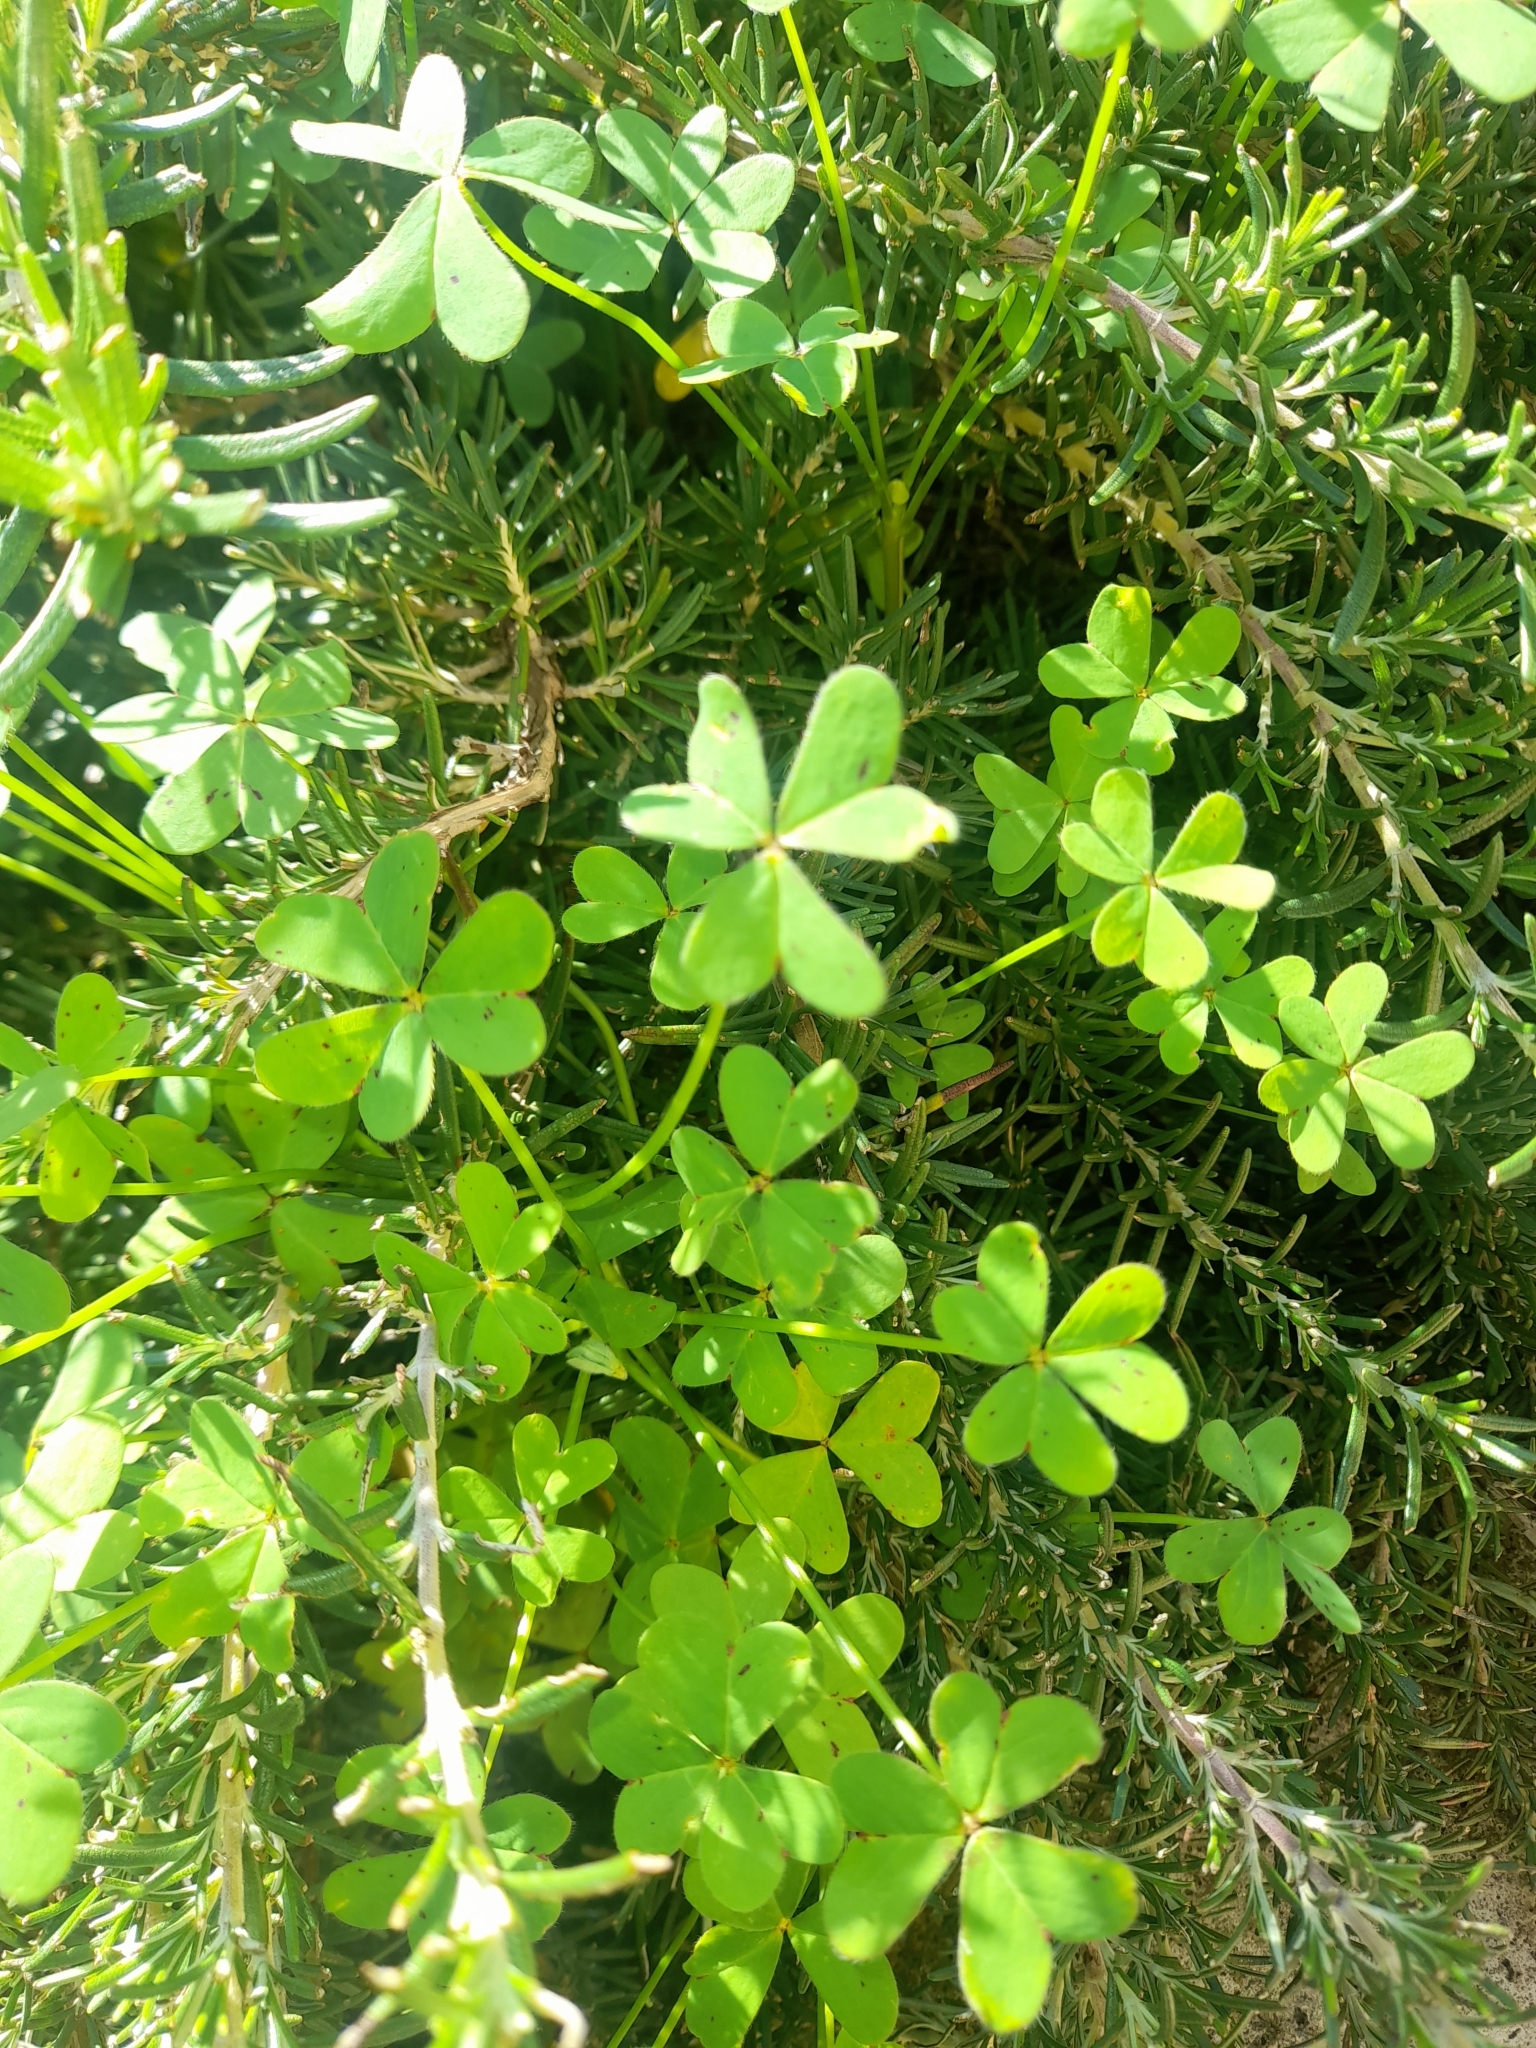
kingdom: Plantae
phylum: Tracheophyta
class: Magnoliopsida
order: Oxalidales
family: Oxalidaceae
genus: Oxalis
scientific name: Oxalis pes-caprae
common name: Bermuda-buttercup
